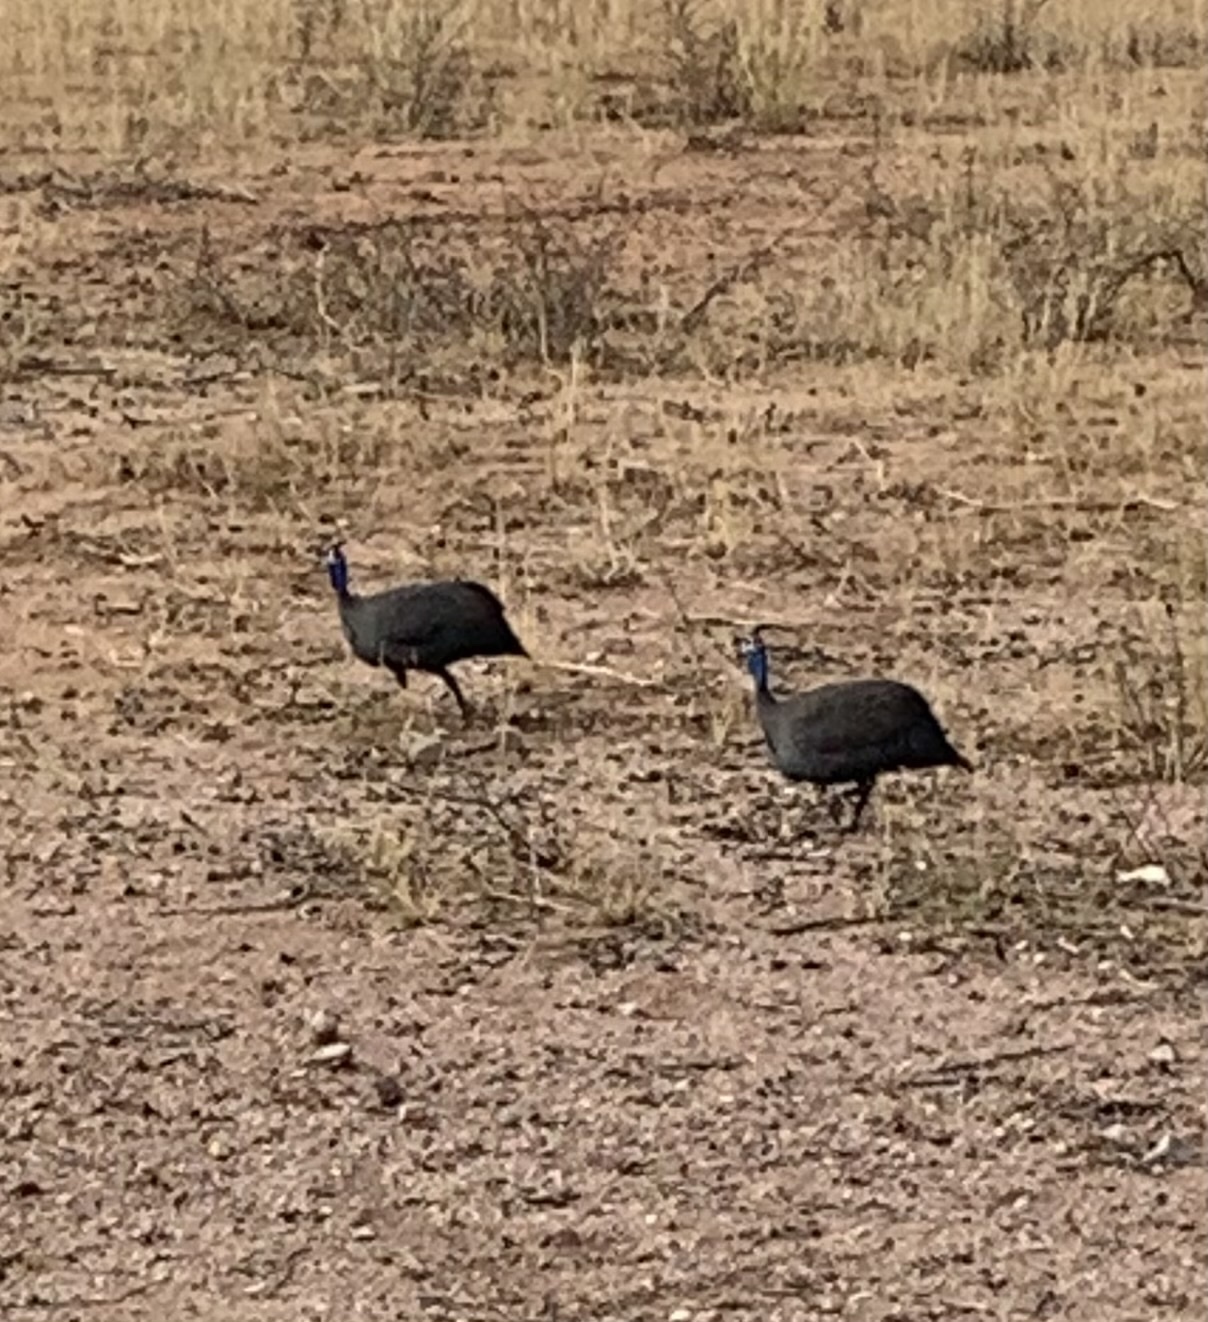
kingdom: Animalia
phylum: Chordata
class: Aves
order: Galliformes
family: Numididae
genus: Numida
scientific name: Numida meleagris
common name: Helmeted guineafowl
